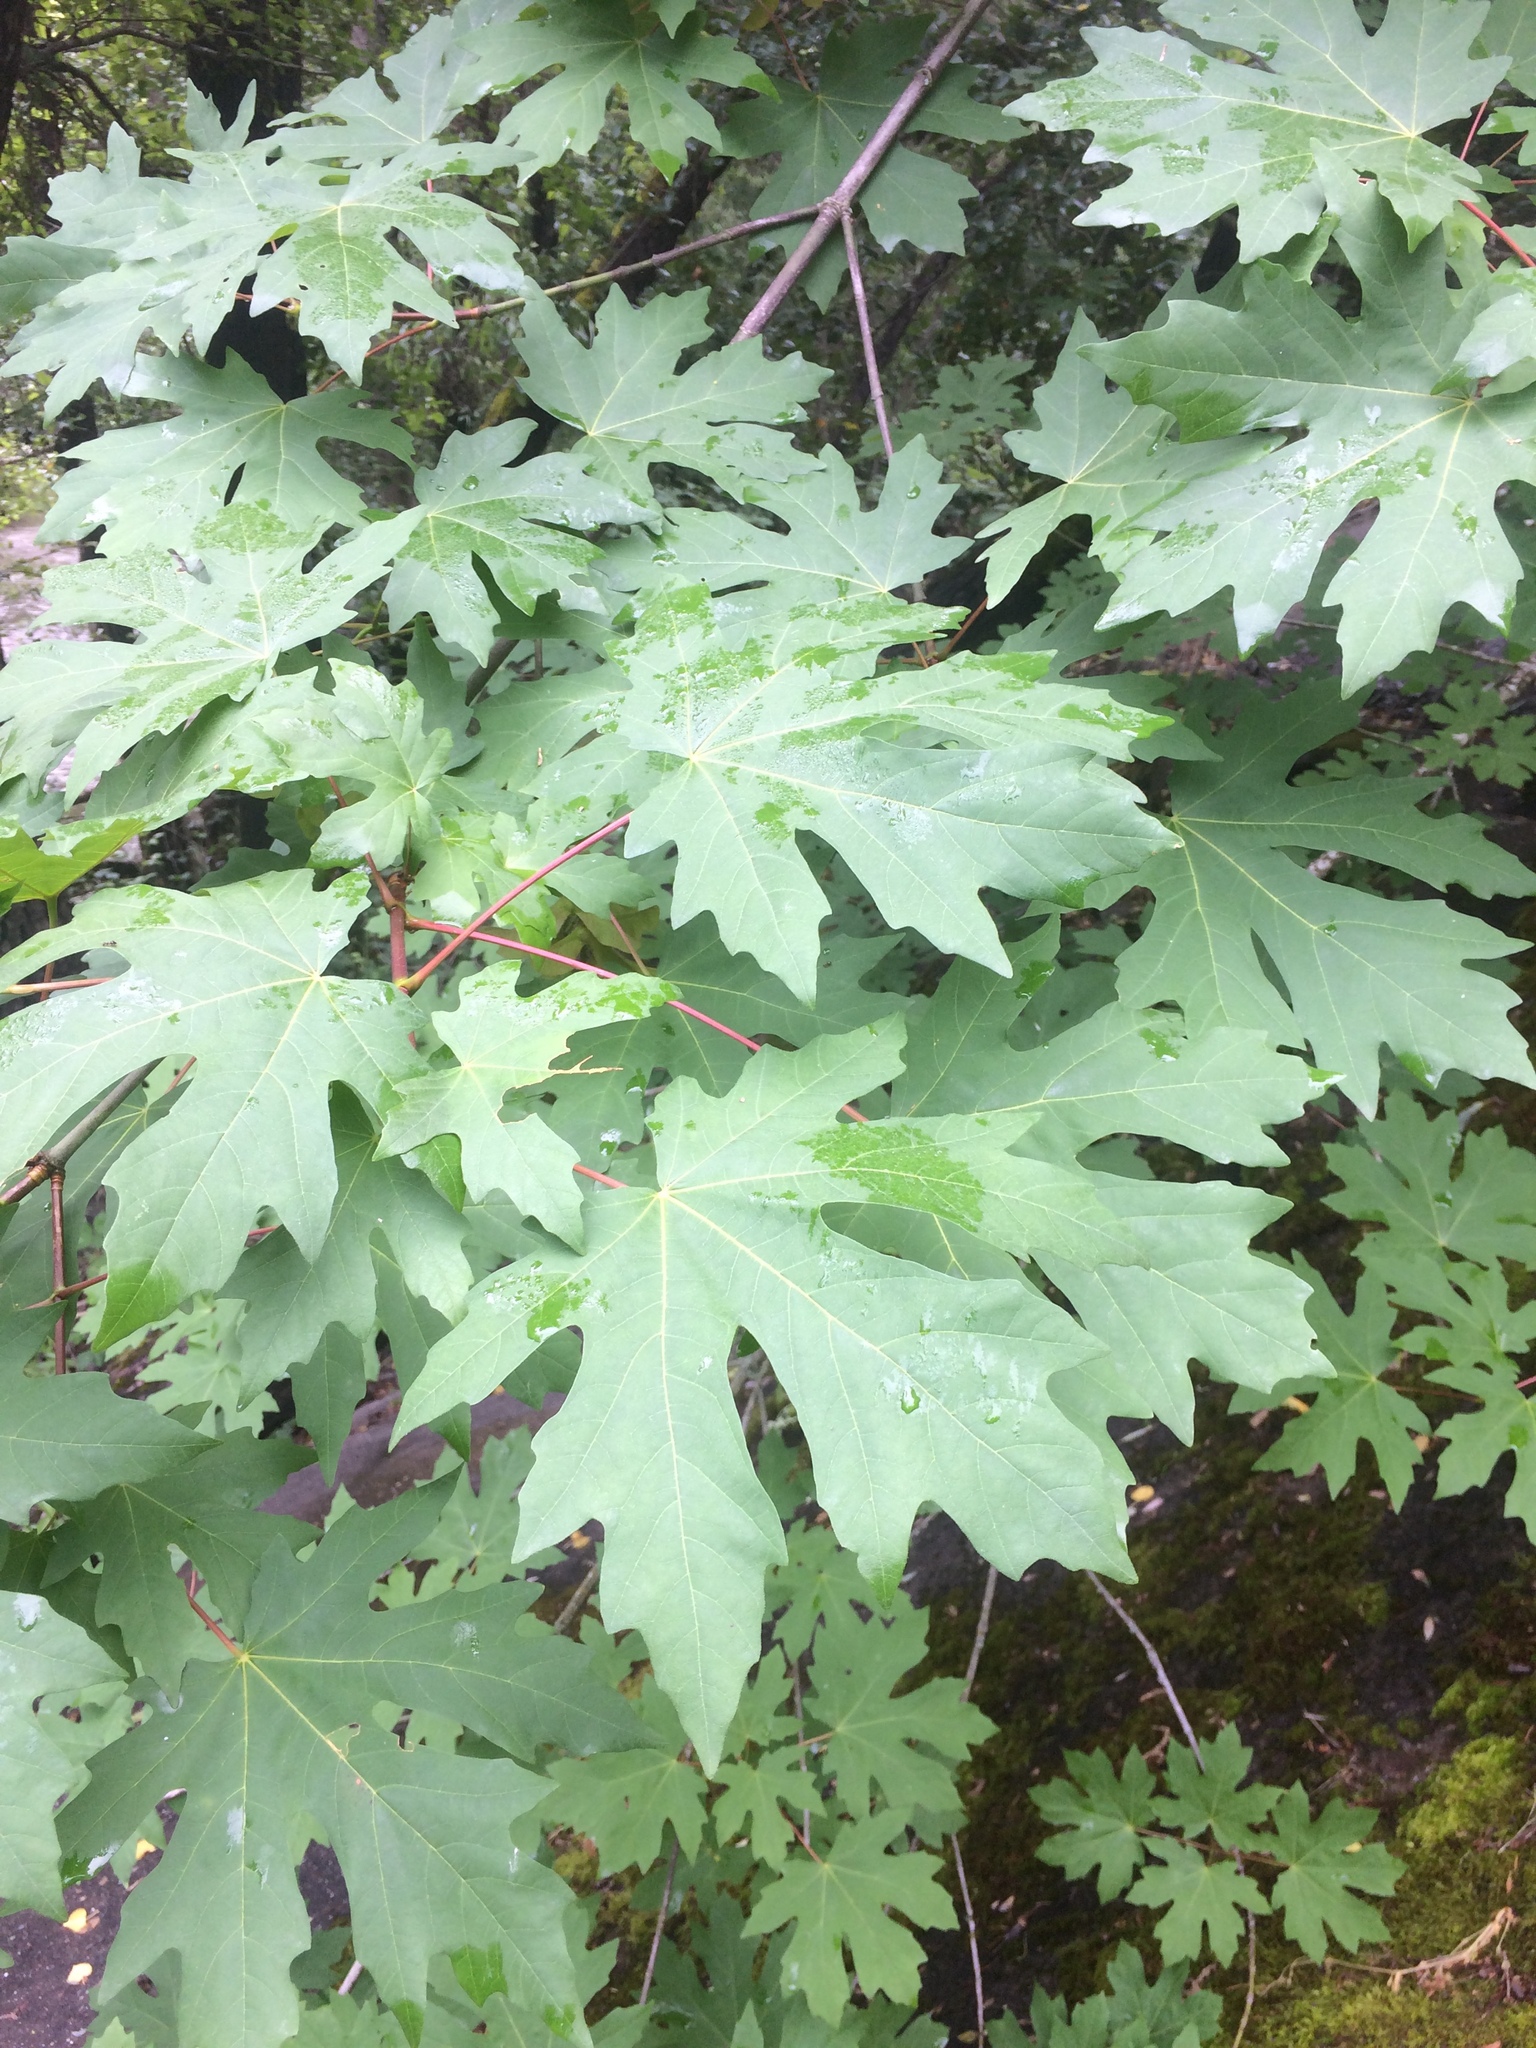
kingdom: Plantae
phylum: Tracheophyta
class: Magnoliopsida
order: Sapindales
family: Sapindaceae
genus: Acer
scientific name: Acer macrophyllum
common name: Oregon maple
